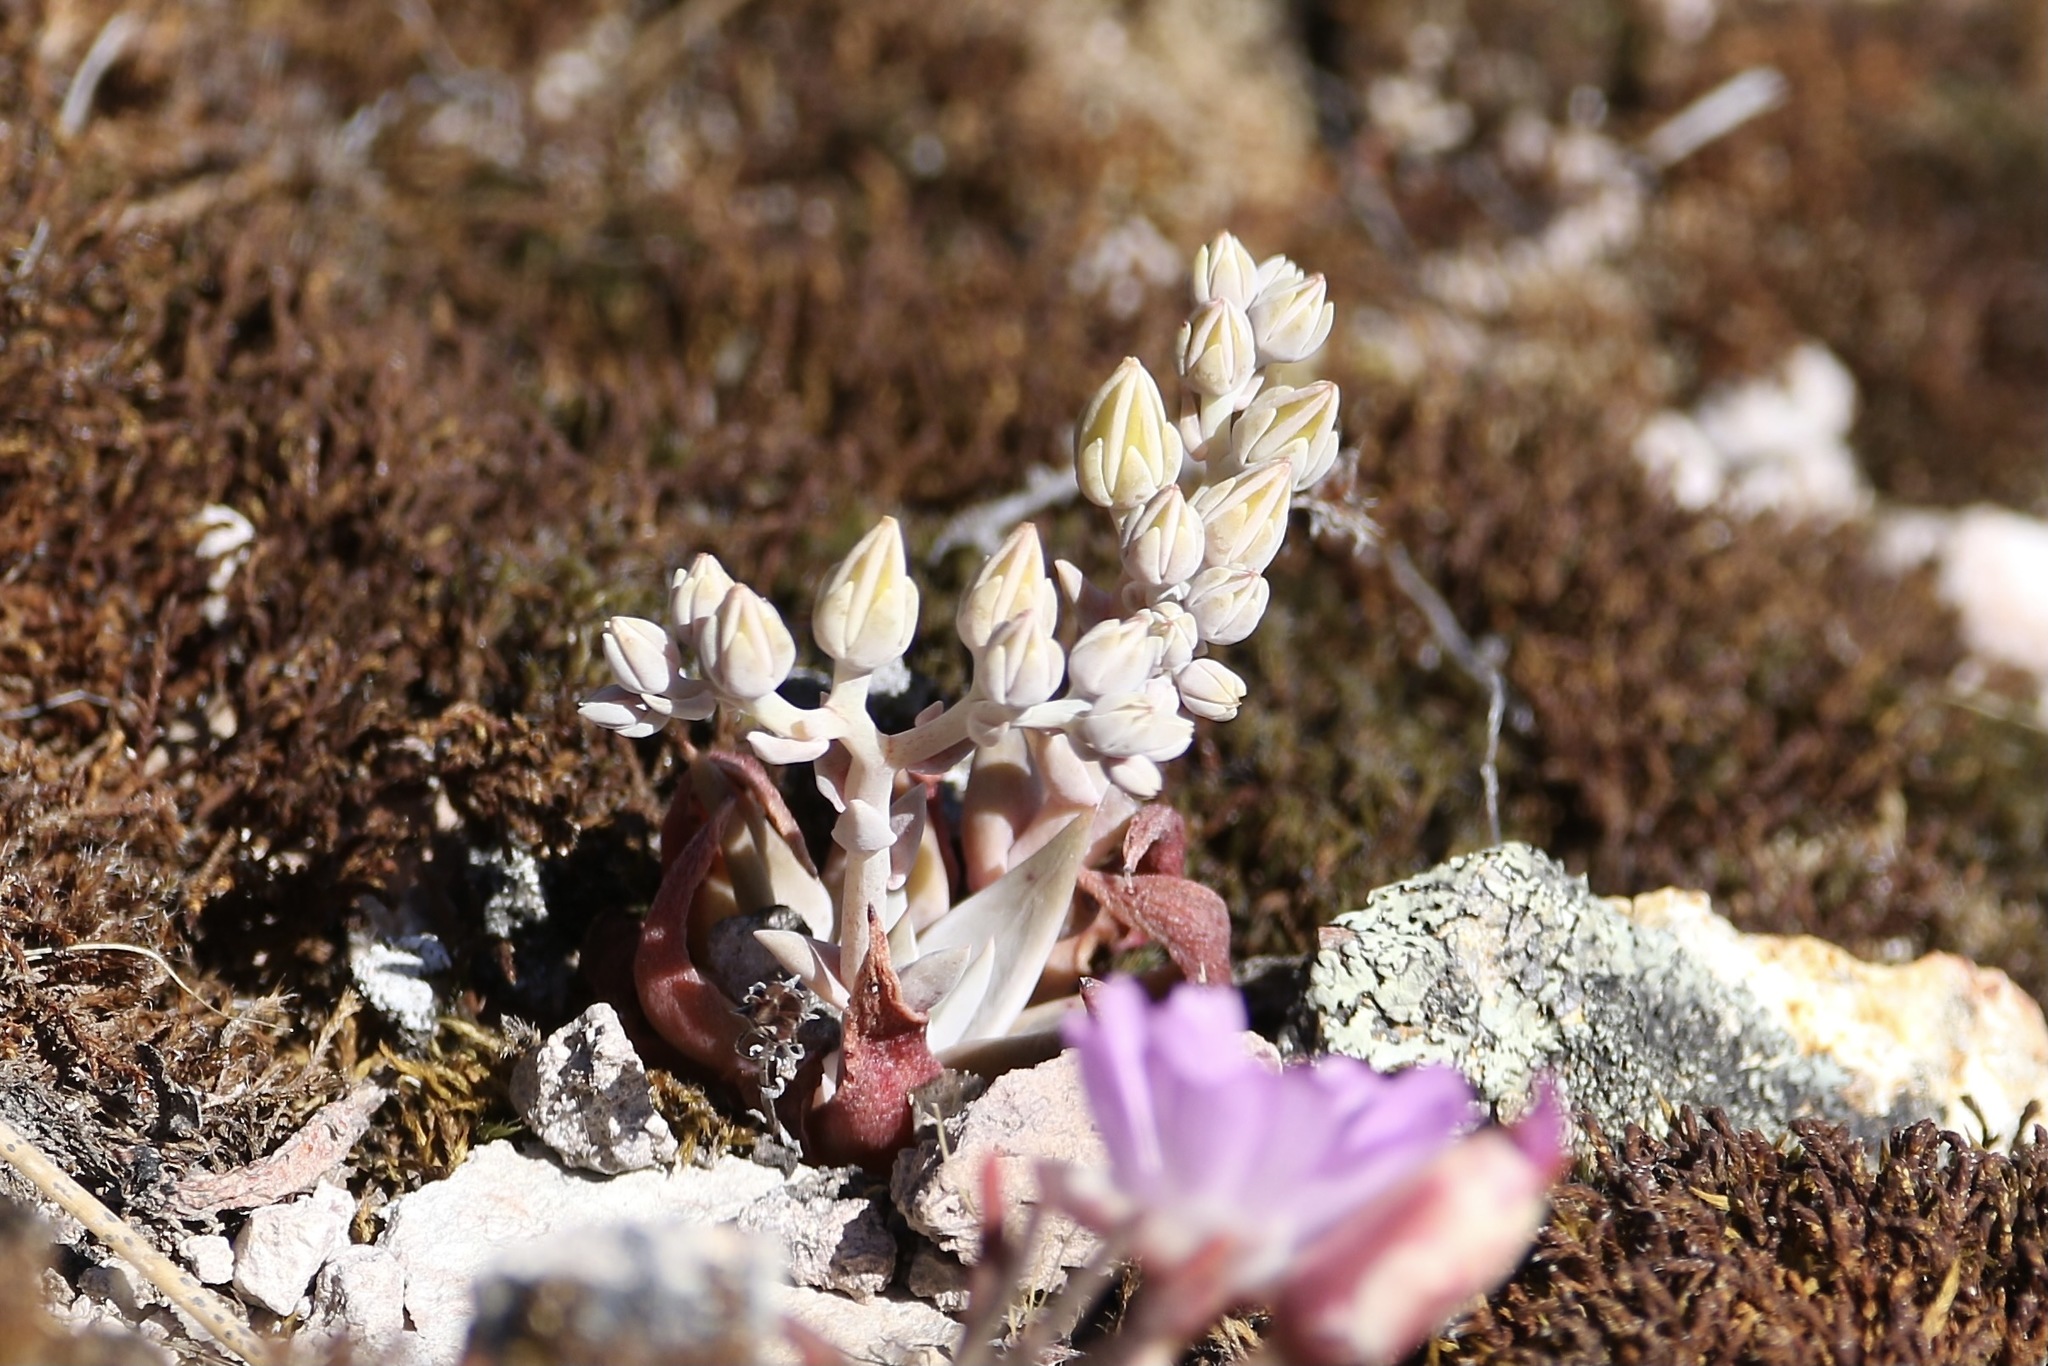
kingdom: Plantae
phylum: Tracheophyta
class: Magnoliopsida
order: Saxifragales
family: Crassulaceae
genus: Dudleya
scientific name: Dudleya cymosa
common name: Canyon dudleya
